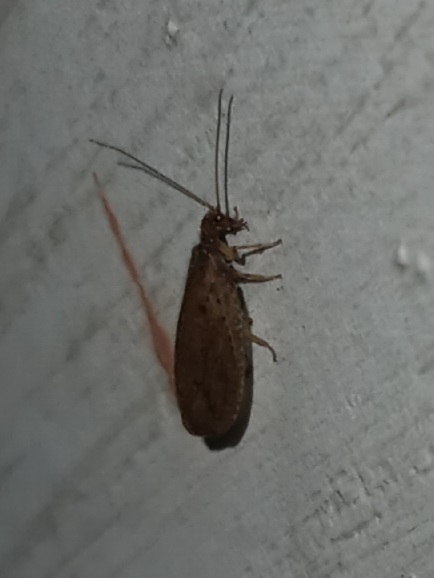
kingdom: Animalia
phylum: Arthropoda
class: Insecta
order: Neuroptera
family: Hemerobiidae
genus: Micromus
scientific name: Micromus subanticus
